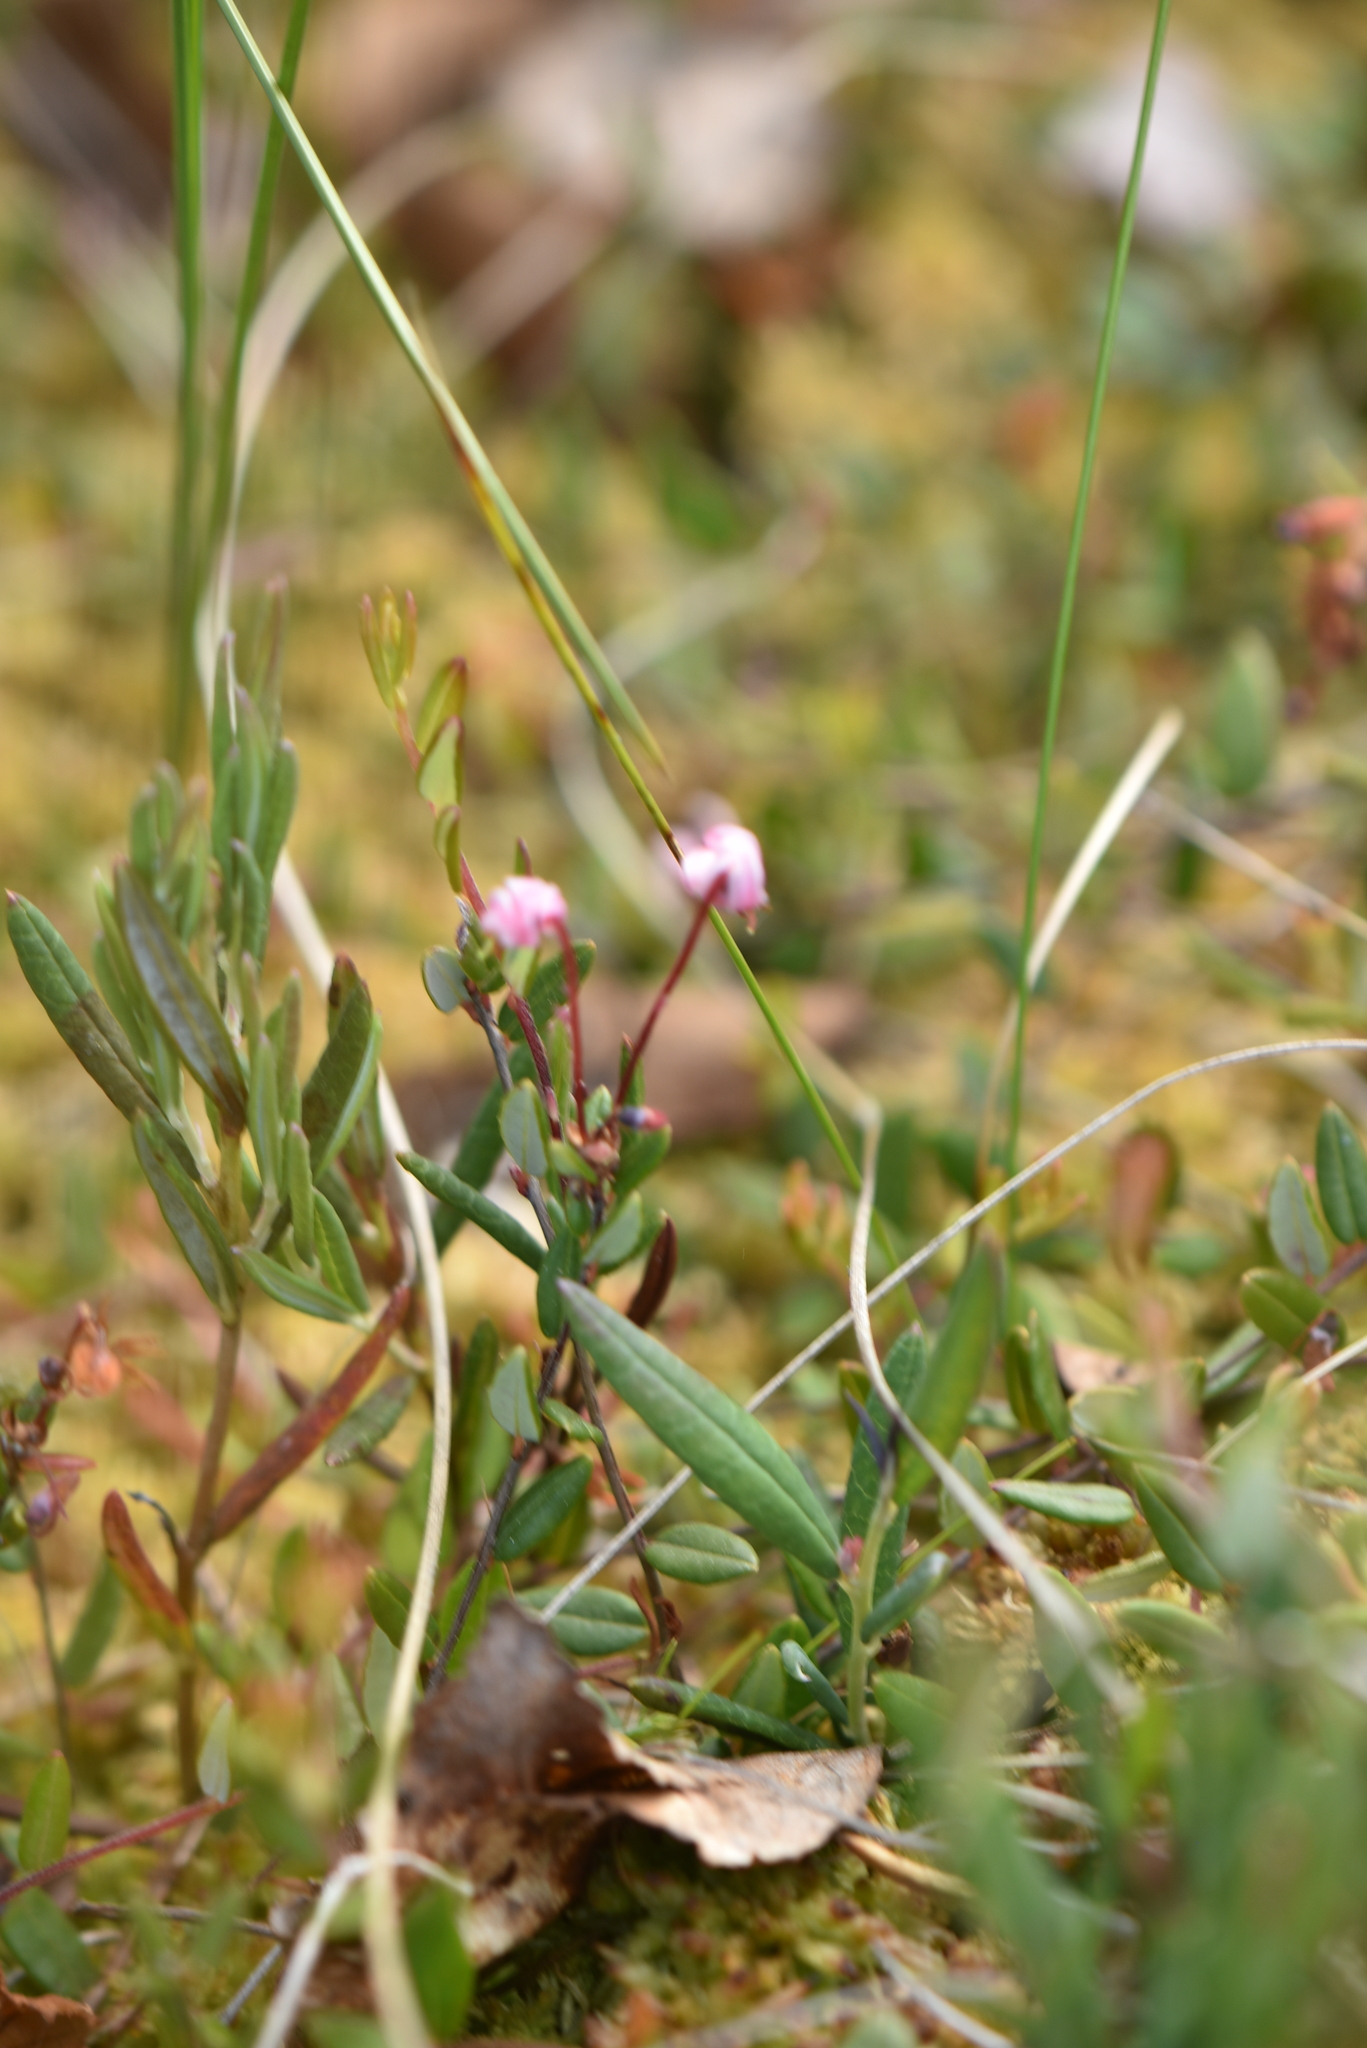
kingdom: Plantae
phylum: Tracheophyta
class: Magnoliopsida
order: Ericales
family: Ericaceae
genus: Andromeda
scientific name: Andromeda polifolia
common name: Bog-rosemary
